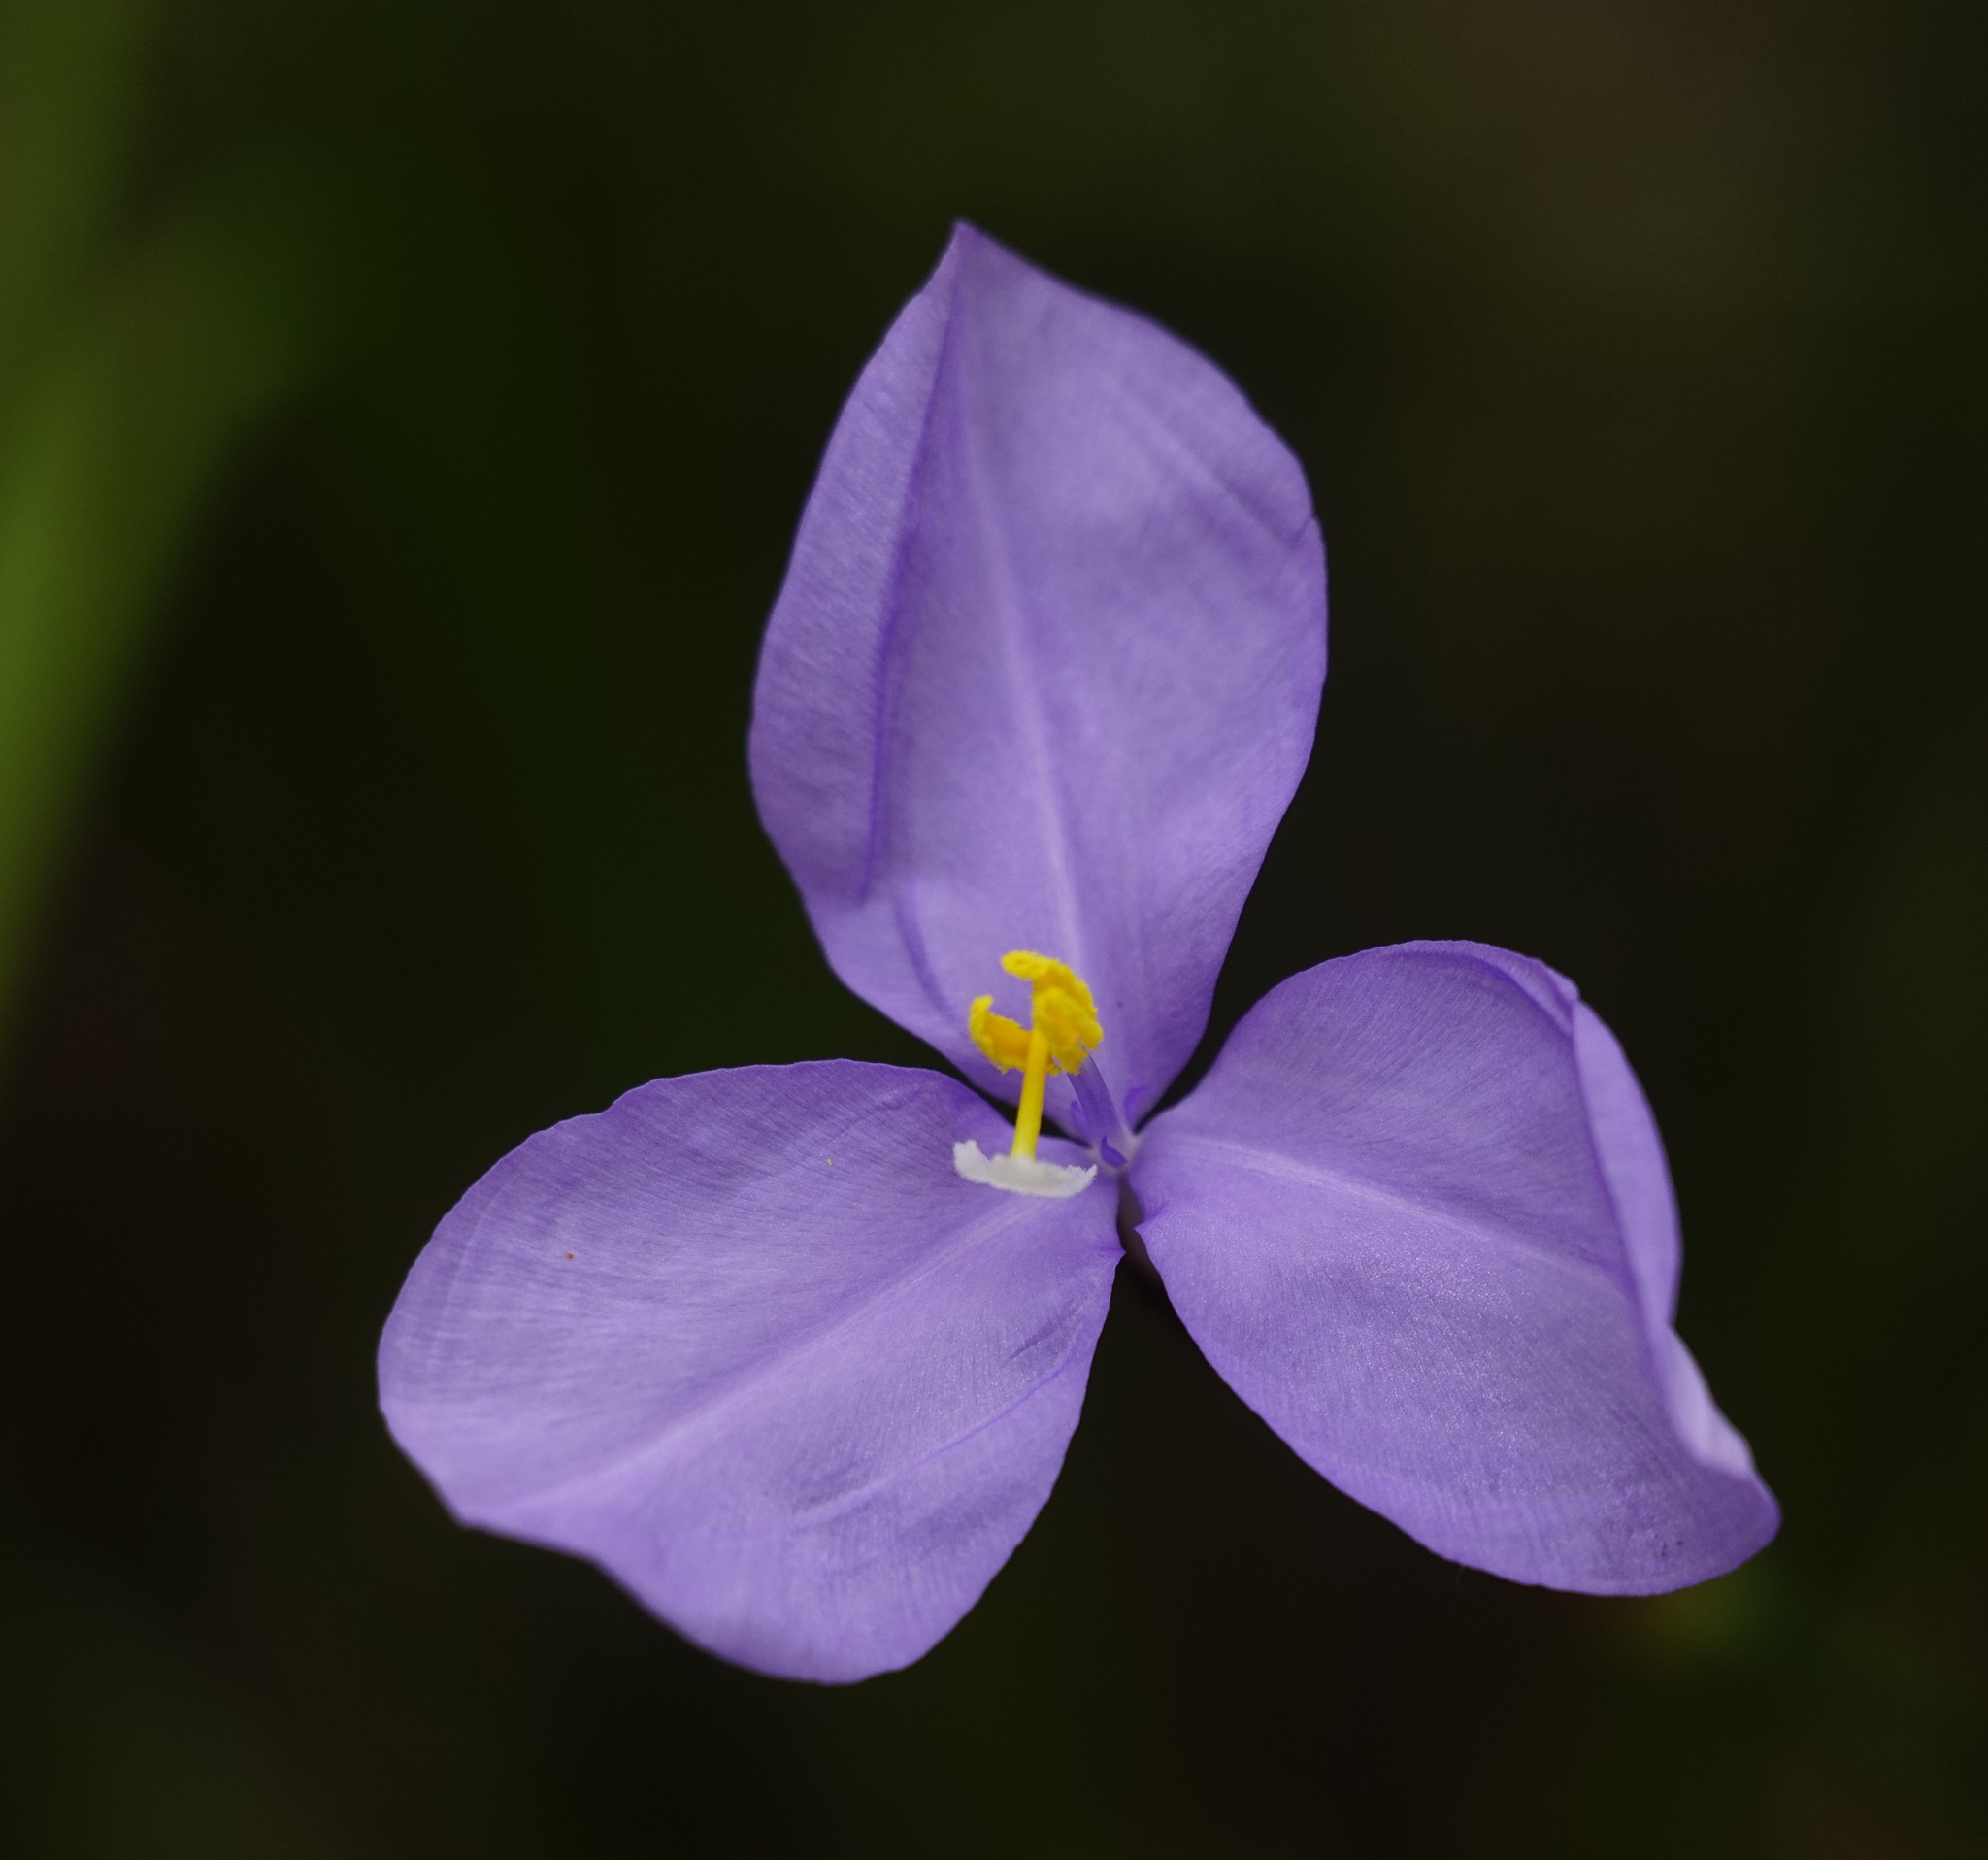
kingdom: Plantae
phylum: Tracheophyta
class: Liliopsida
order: Asparagales
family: Iridaceae
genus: Patersonia
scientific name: Patersonia glabrata
